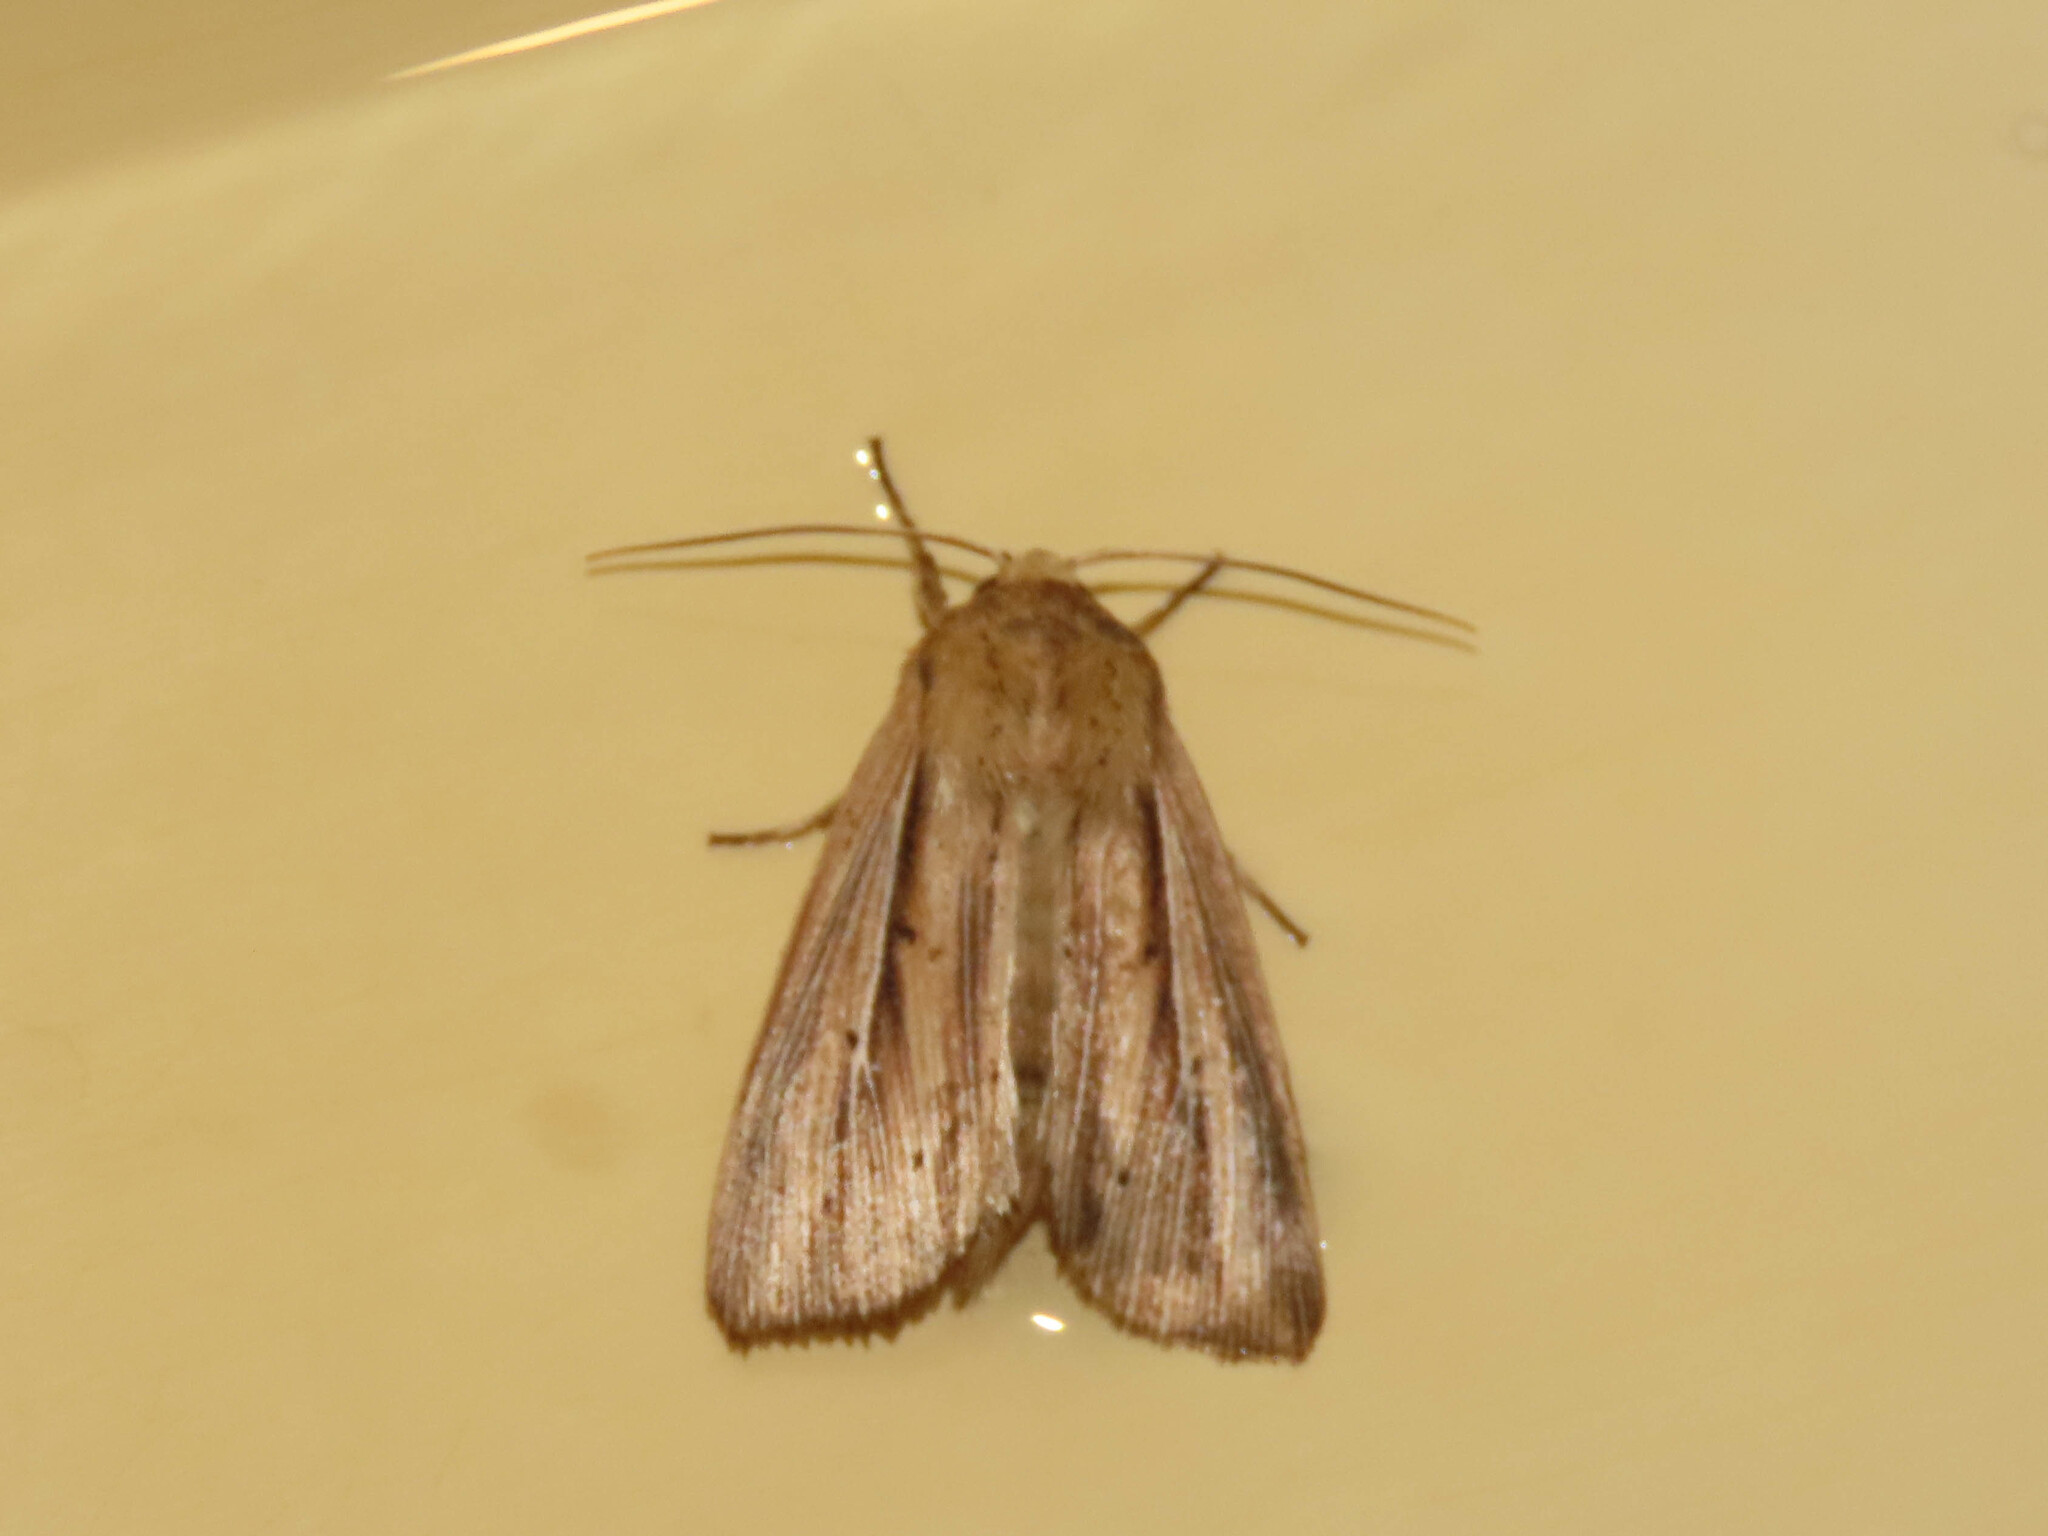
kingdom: Animalia
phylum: Arthropoda
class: Insecta
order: Lepidoptera
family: Noctuidae
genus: Leucania
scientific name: Leucania linda
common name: Linda's wainscot
